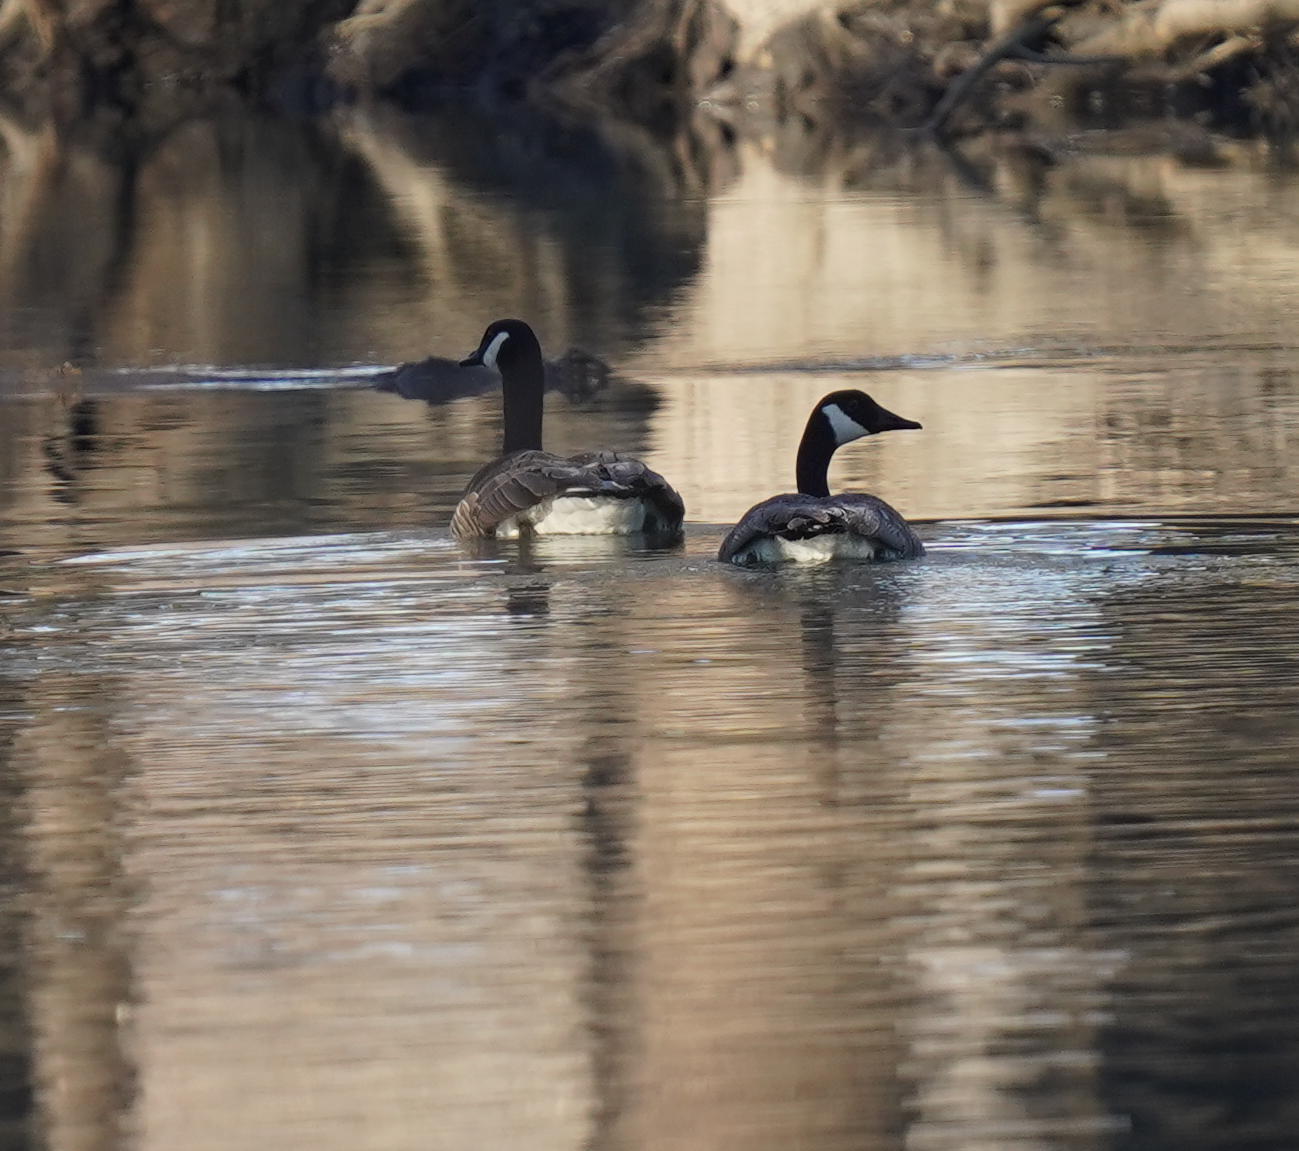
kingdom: Animalia
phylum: Chordata
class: Aves
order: Anseriformes
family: Anatidae
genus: Branta
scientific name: Branta canadensis
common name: Canada goose
